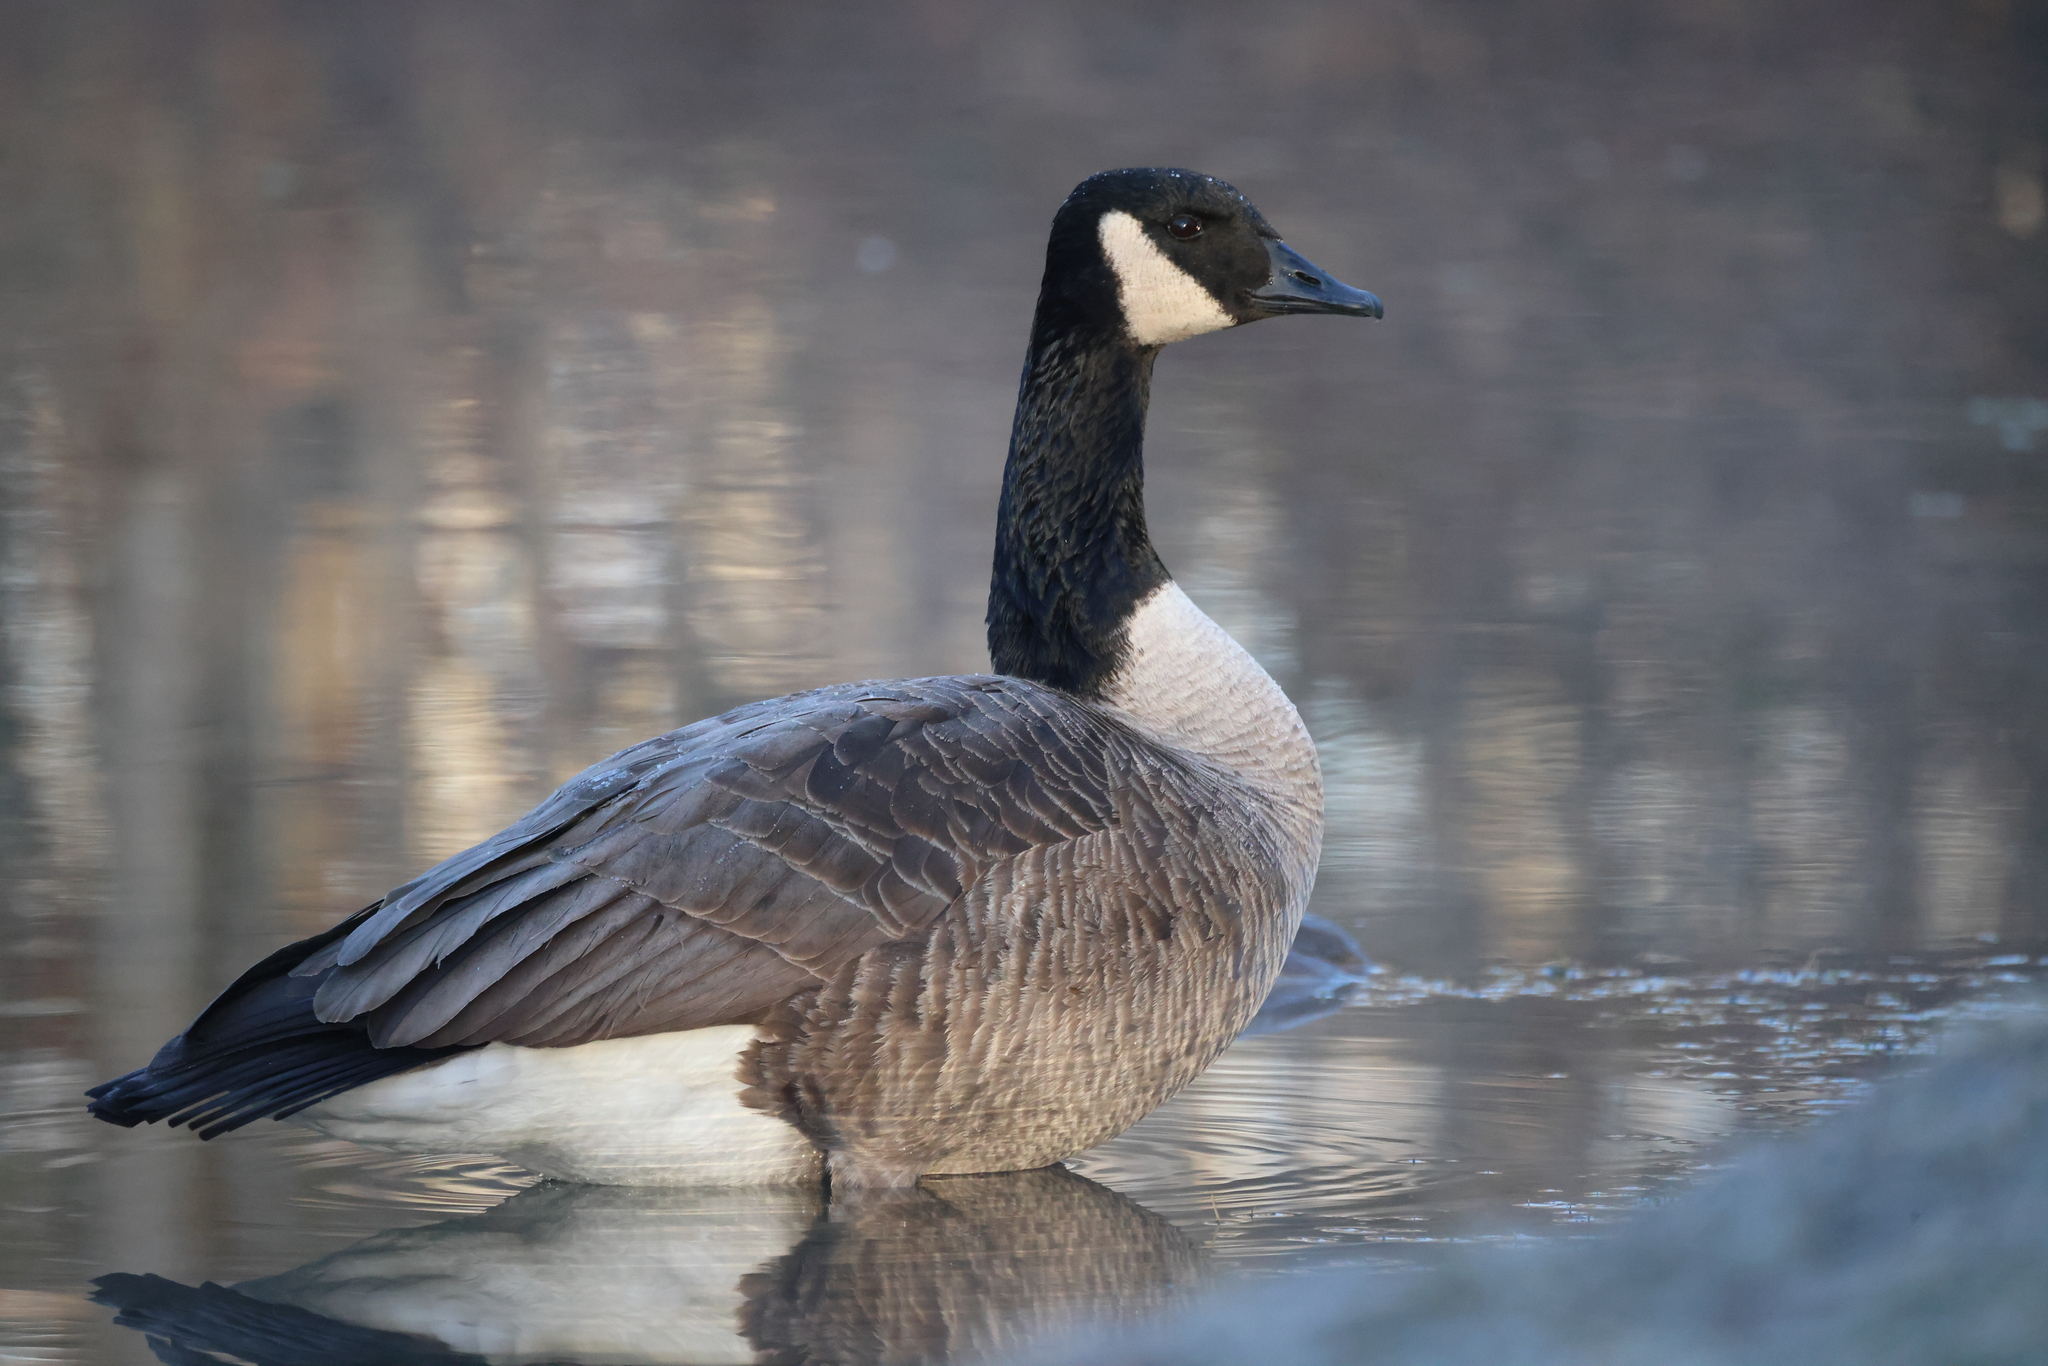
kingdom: Animalia
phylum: Chordata
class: Aves
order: Anseriformes
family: Anatidae
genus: Branta
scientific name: Branta canadensis
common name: Canada goose
